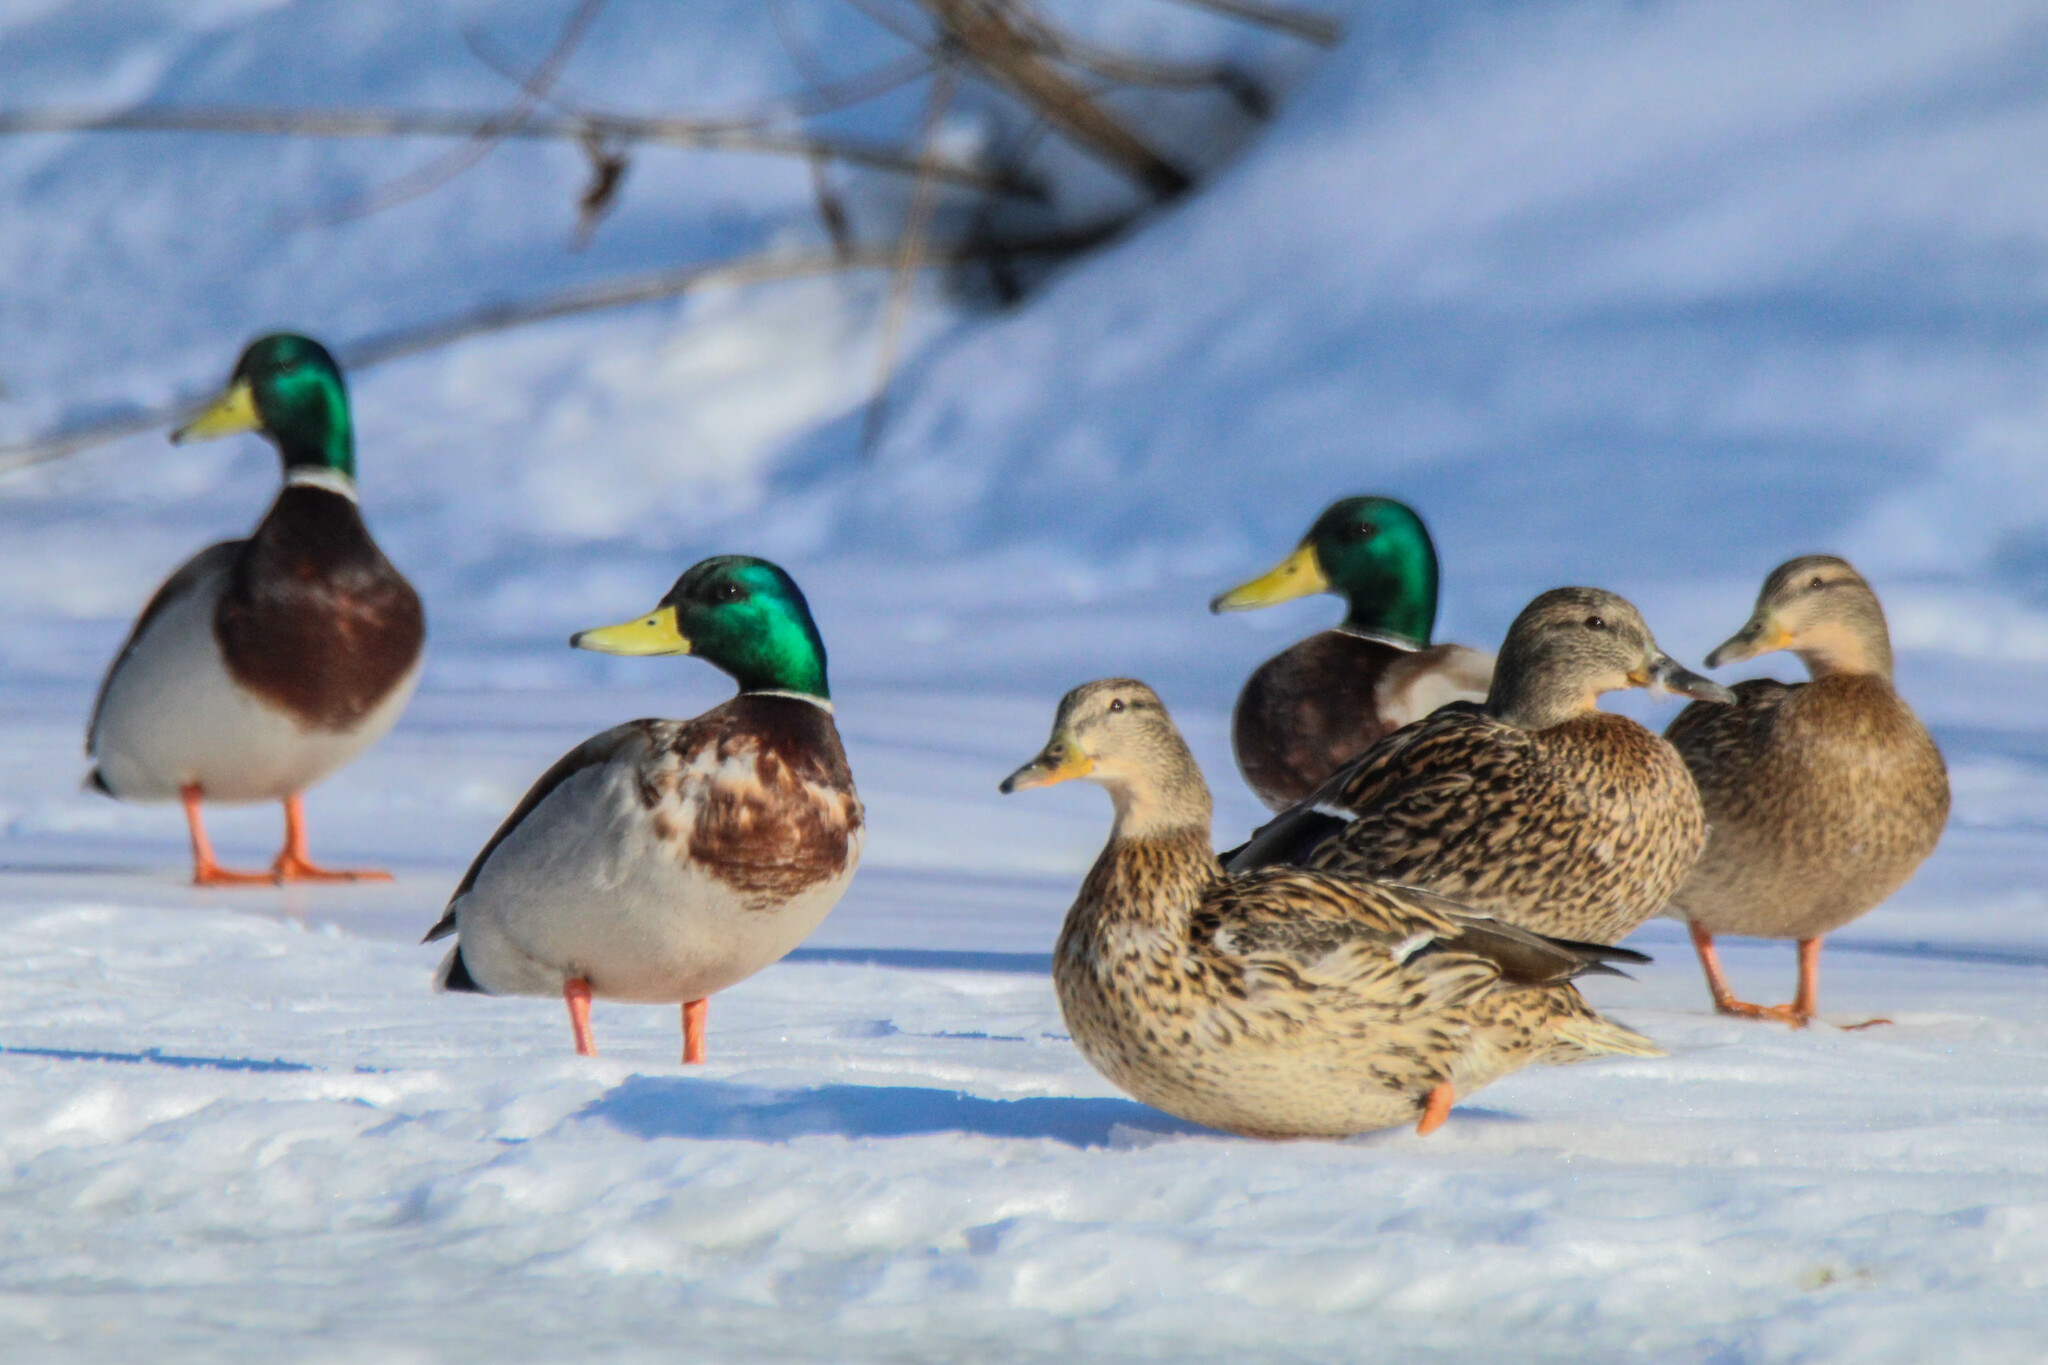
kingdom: Animalia
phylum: Chordata
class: Aves
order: Anseriformes
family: Anatidae
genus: Anas
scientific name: Anas platyrhynchos
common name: Mallard
